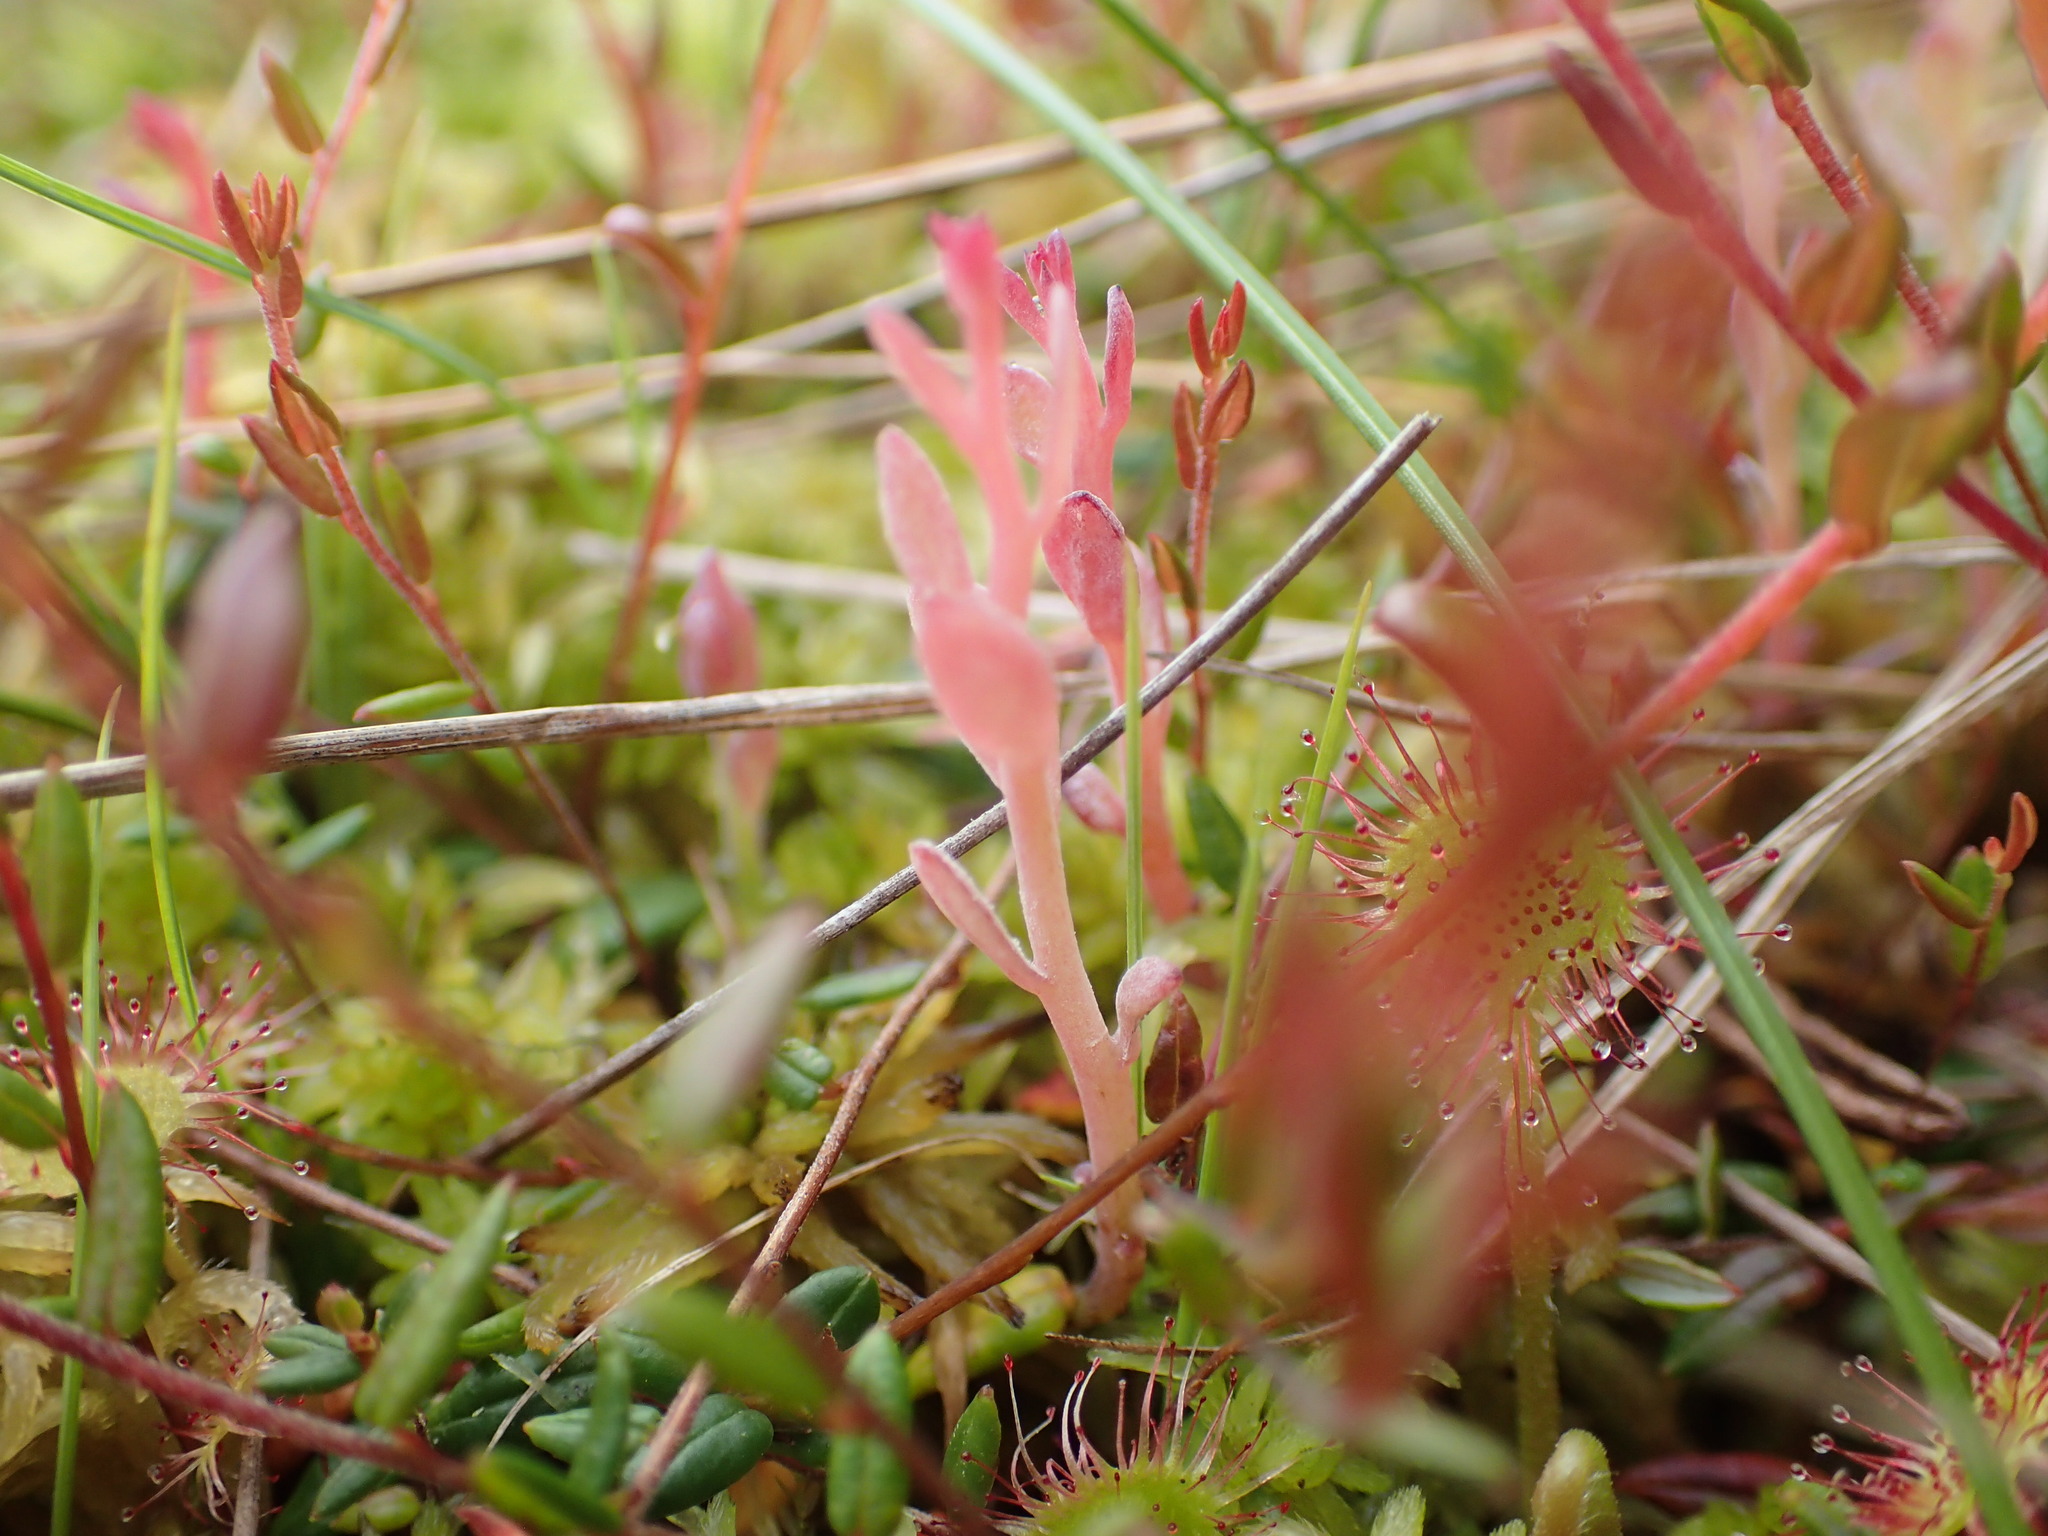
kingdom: Fungi
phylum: Basidiomycota
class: Exobasidiomycetes
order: Exobasidiales
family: Exobasidiaceae
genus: Exobasidium
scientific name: Exobasidium oxycocci
